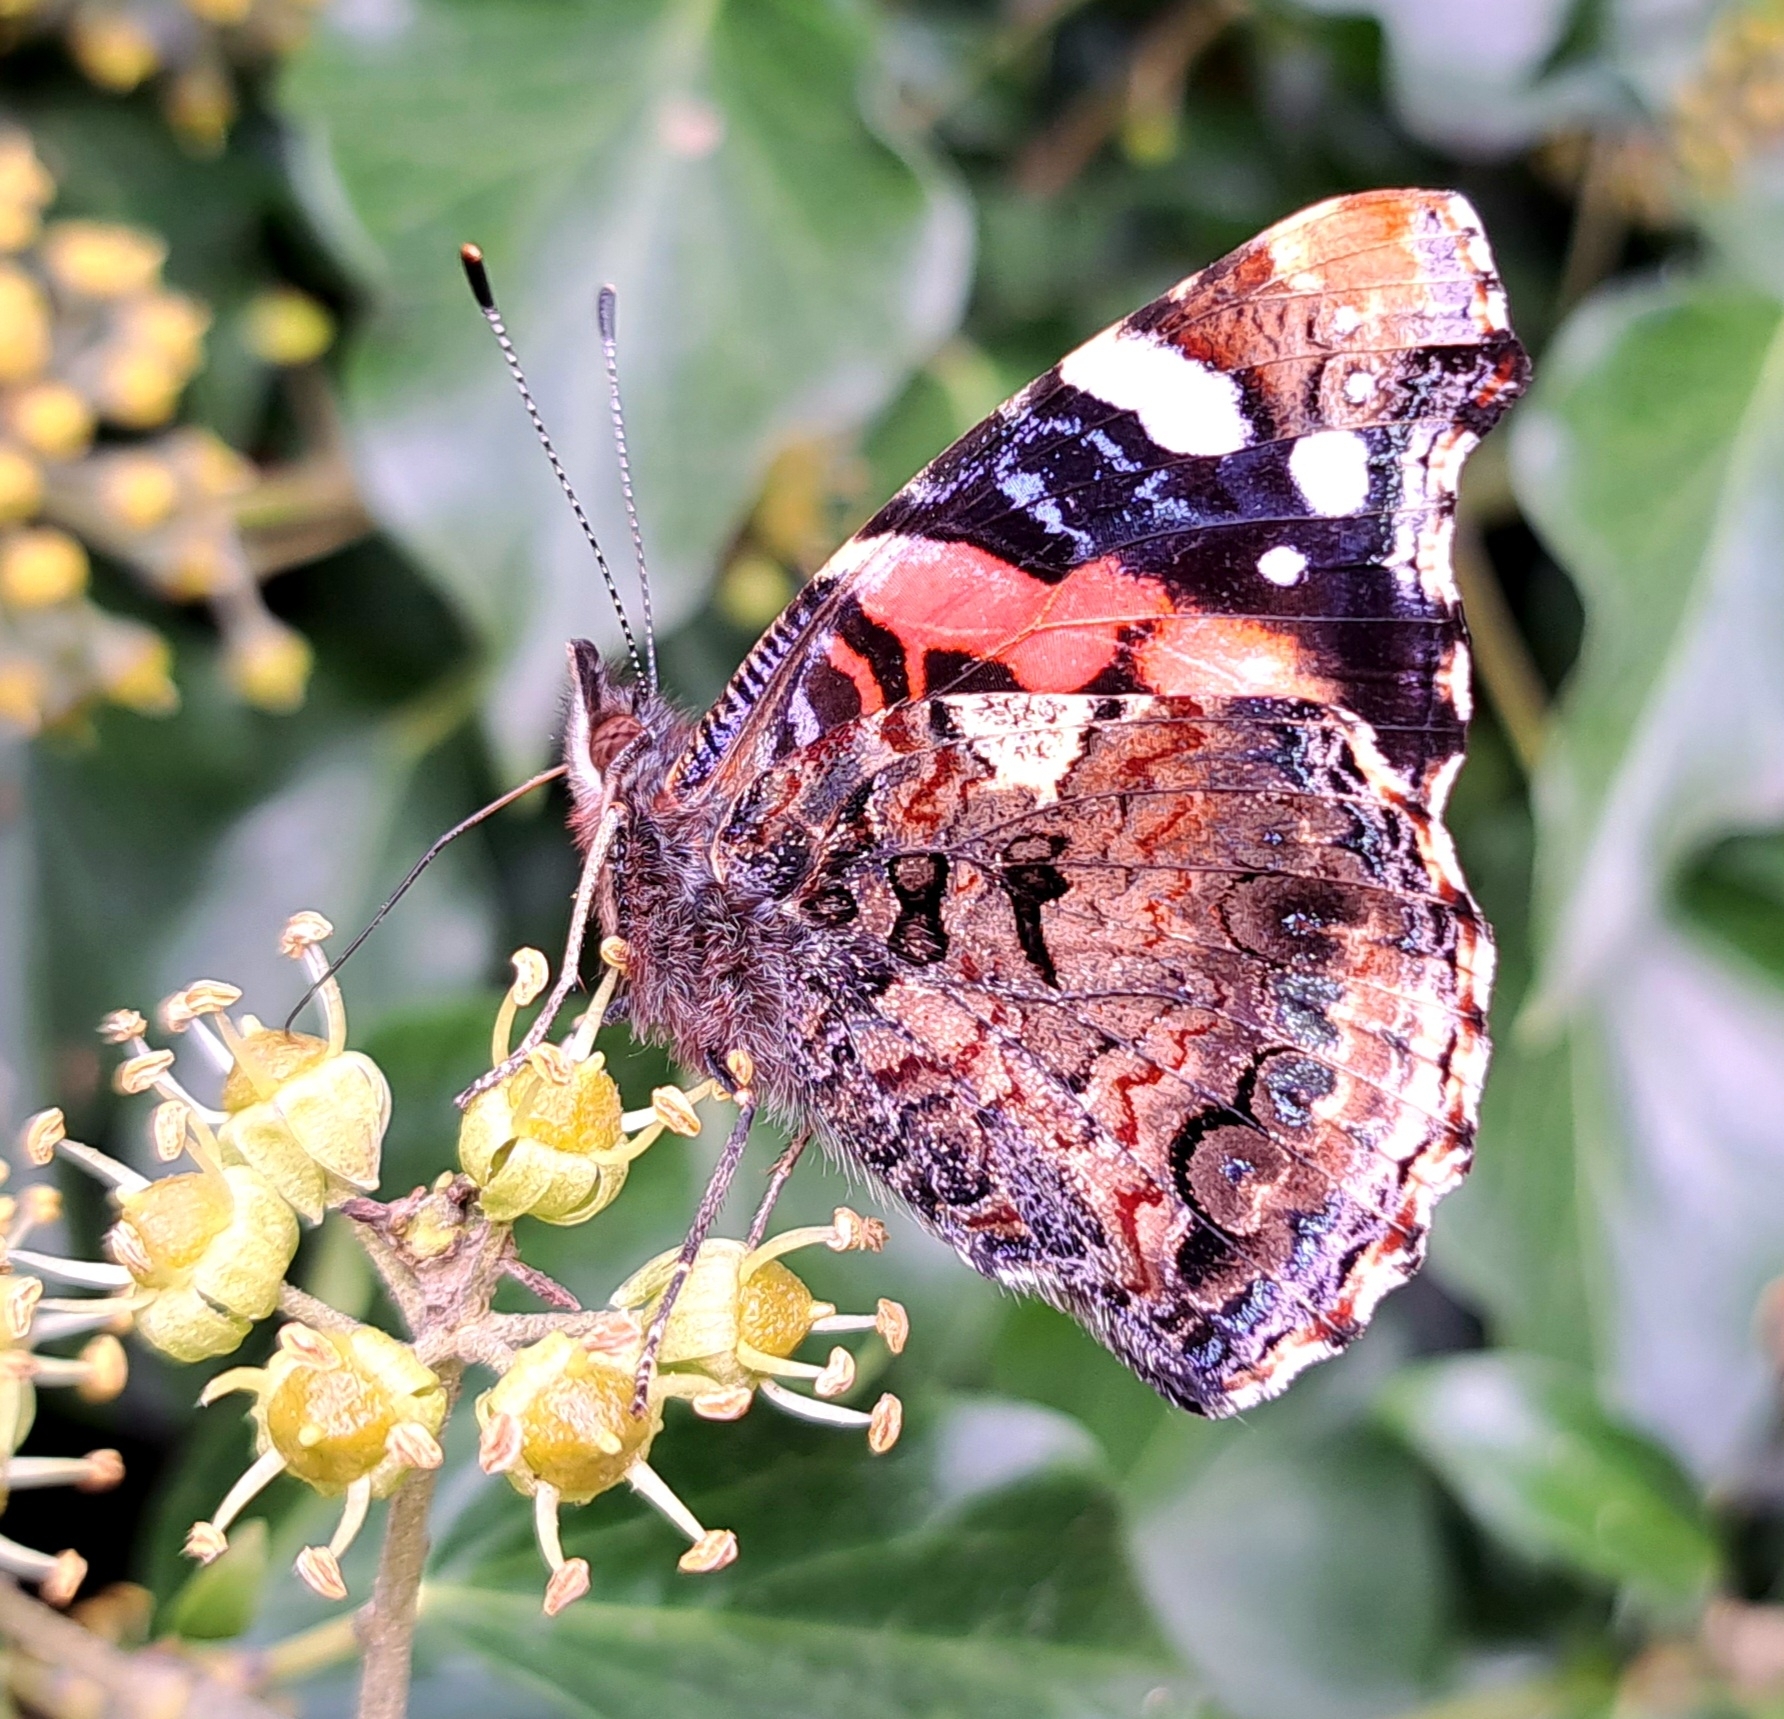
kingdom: Animalia
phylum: Arthropoda
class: Insecta
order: Lepidoptera
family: Nymphalidae
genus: Vanessa
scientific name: Vanessa atalanta
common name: Red admiral
